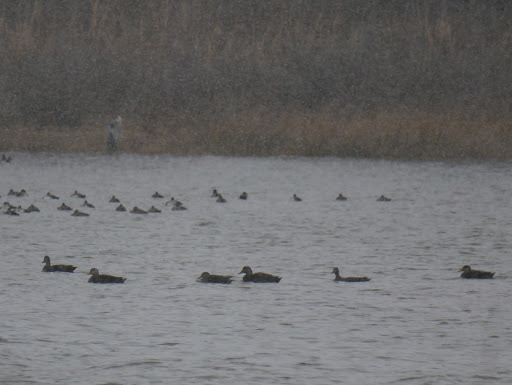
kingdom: Animalia
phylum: Chordata
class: Aves
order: Anseriformes
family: Anatidae
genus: Anas
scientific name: Anas rubripes
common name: American black duck
